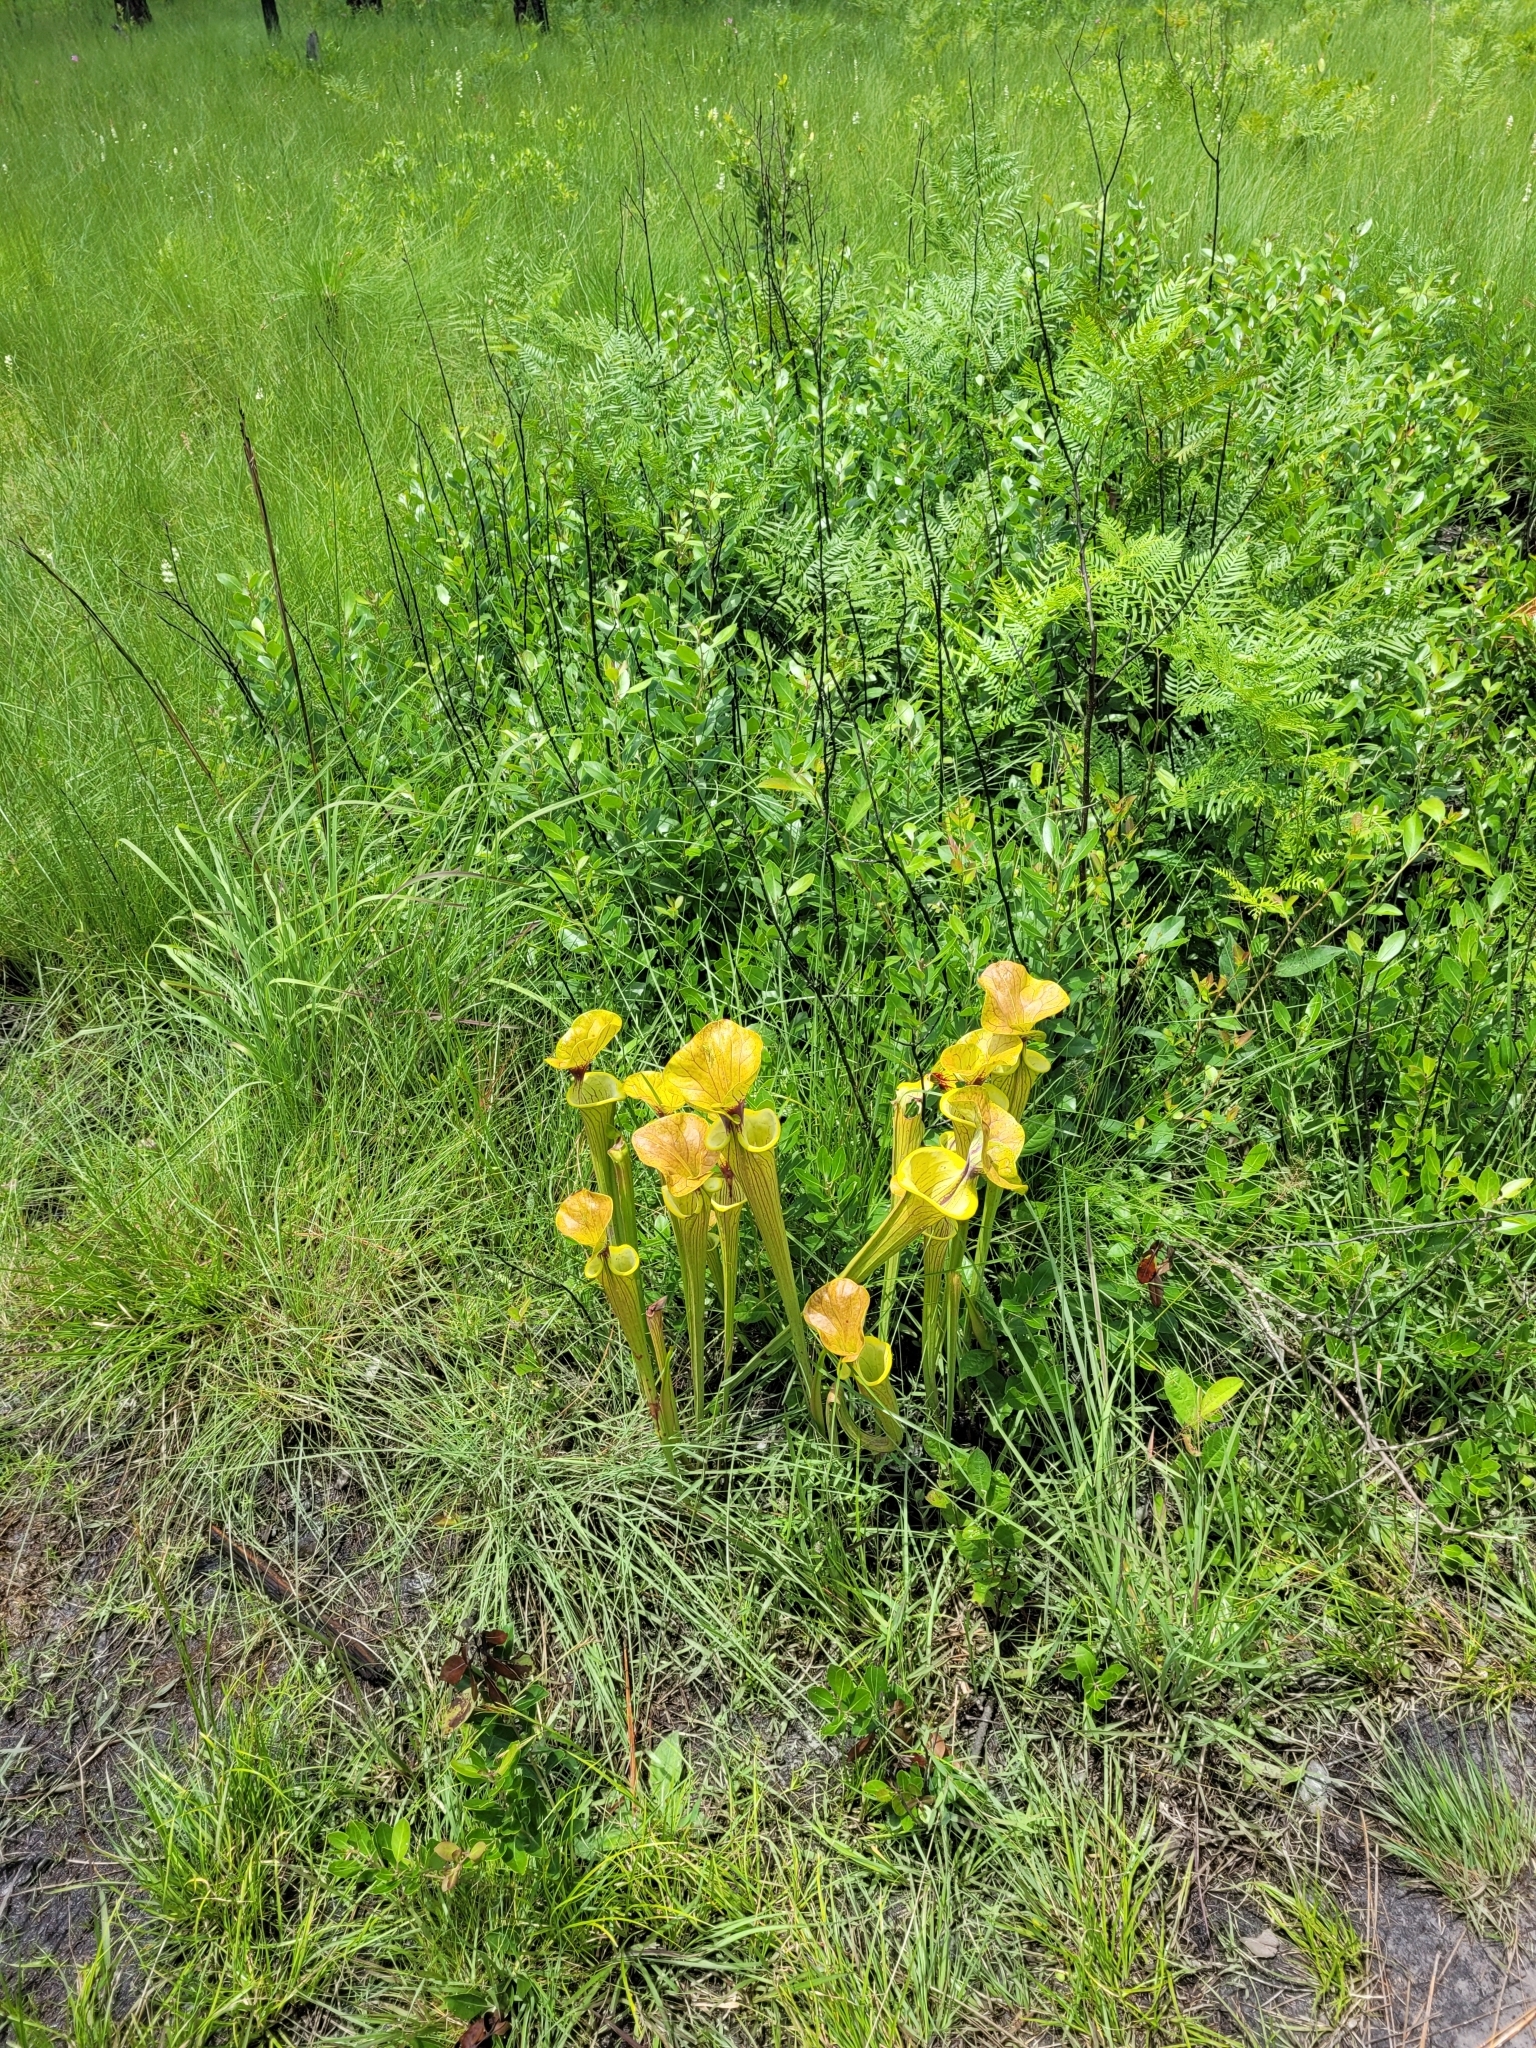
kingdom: Plantae
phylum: Tracheophyta
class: Magnoliopsida
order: Ericales
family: Sarraceniaceae
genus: Sarracenia
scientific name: Sarracenia flava
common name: Trumpets
